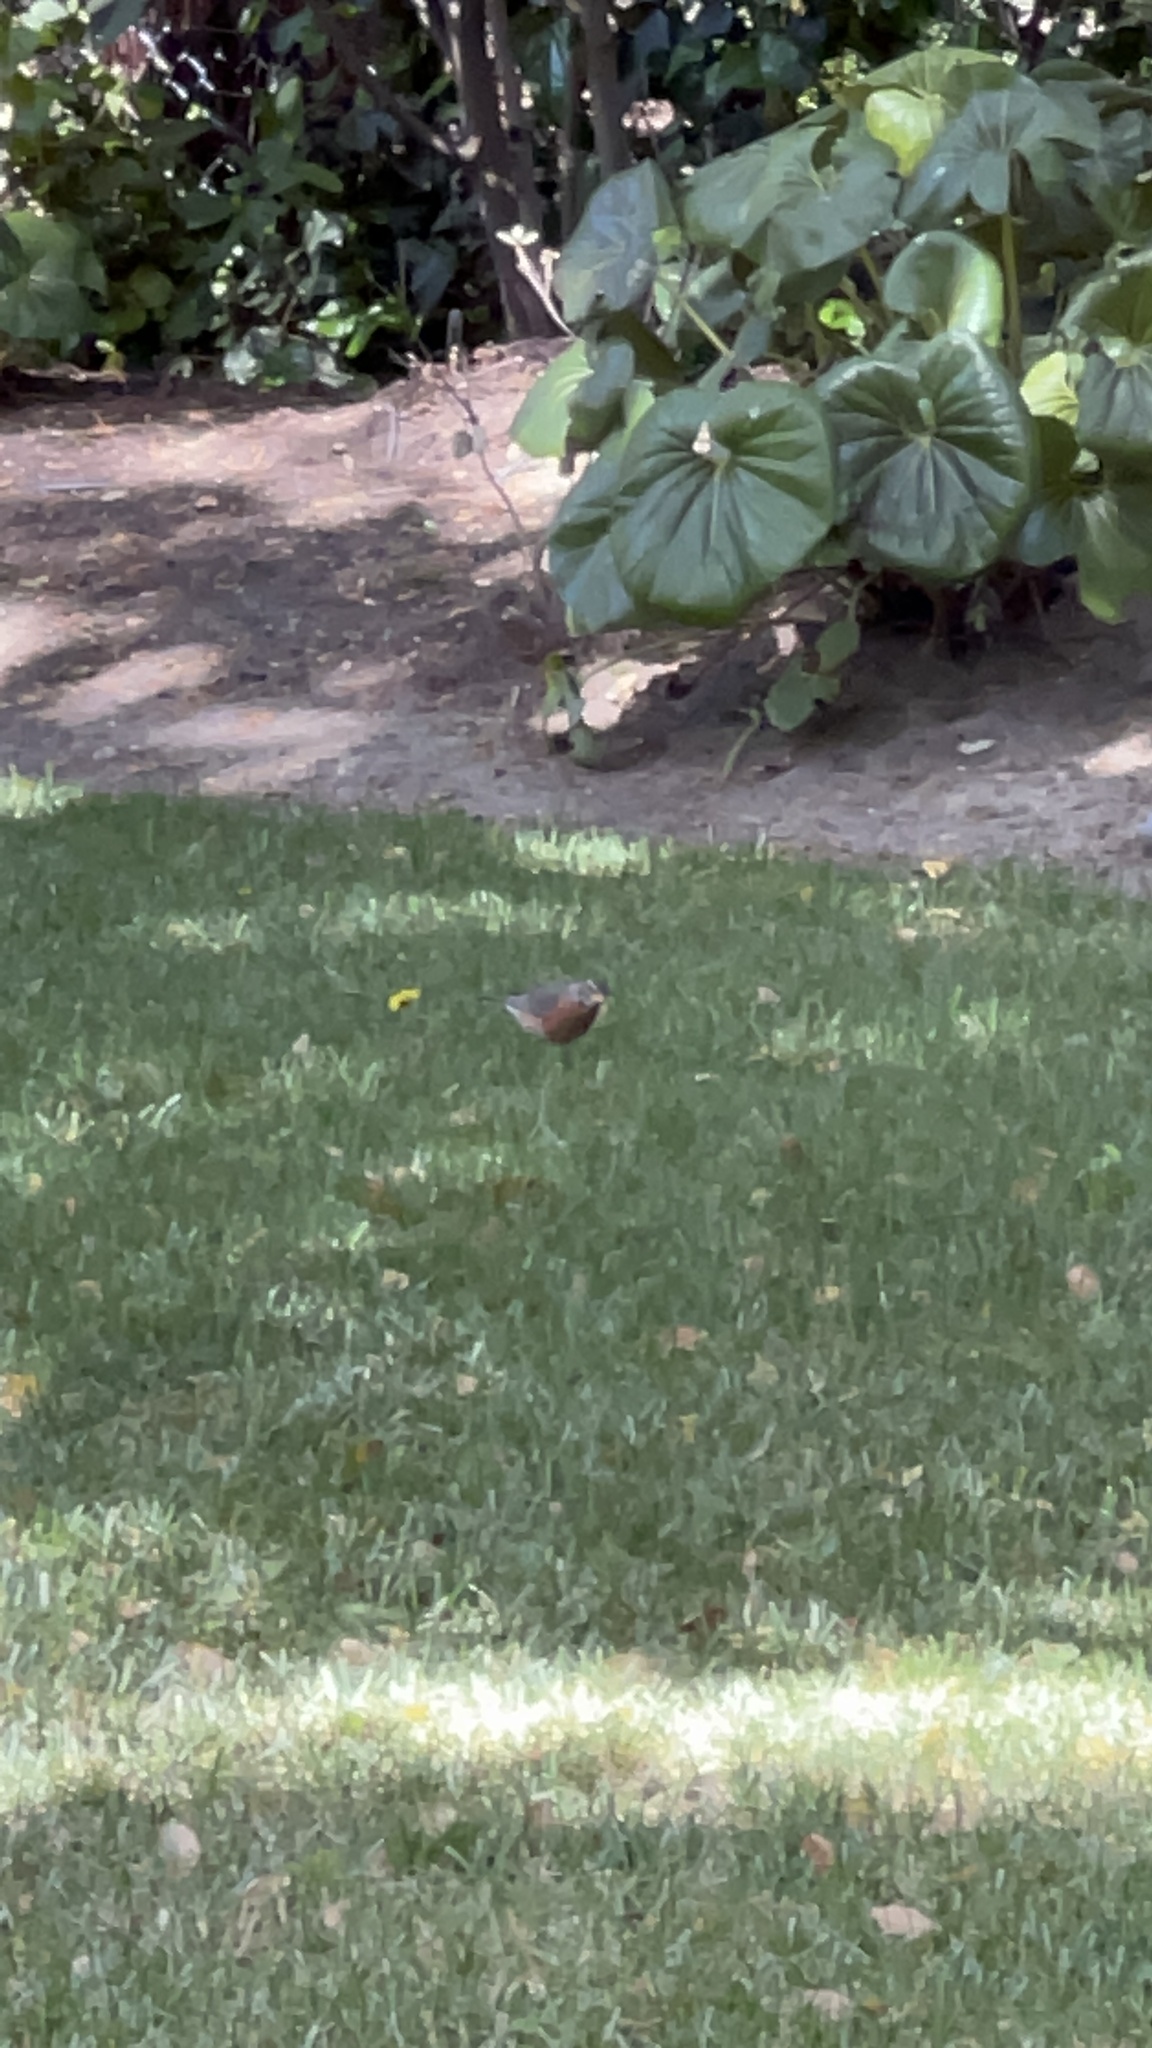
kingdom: Animalia
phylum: Chordata
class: Aves
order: Passeriformes
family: Turdidae
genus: Turdus
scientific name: Turdus migratorius
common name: American robin
